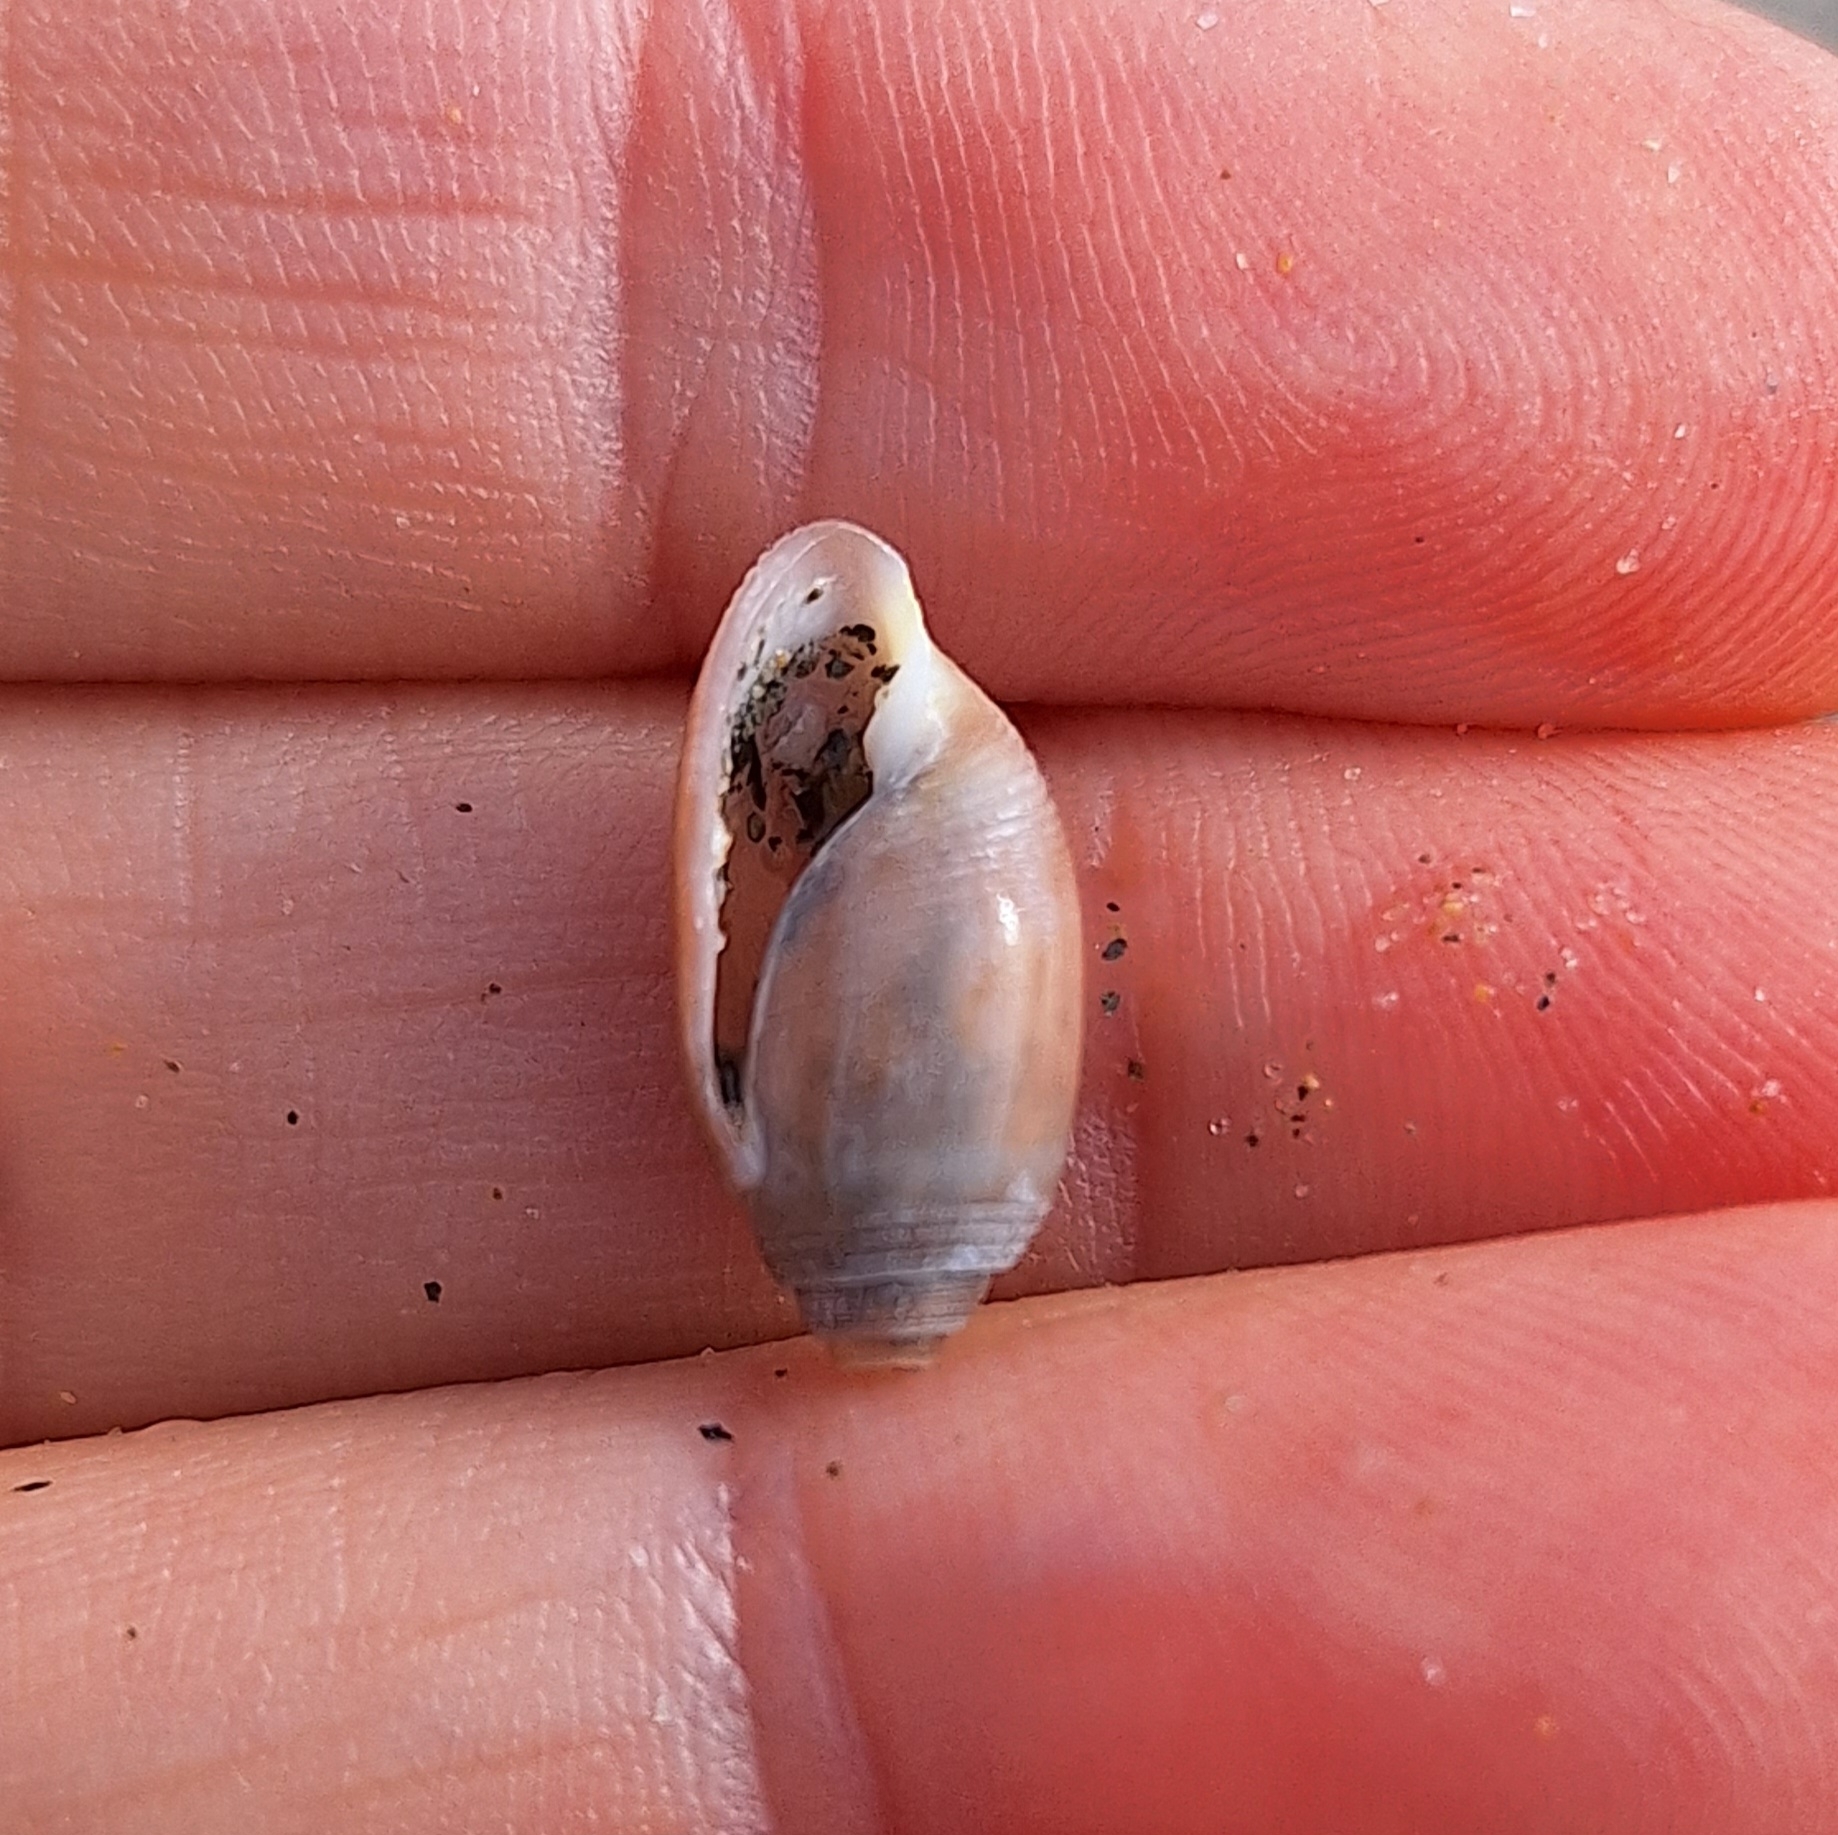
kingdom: Animalia
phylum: Mollusca
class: Gastropoda
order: Cephalaspidea
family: Acteonidae
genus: Acteon
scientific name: Acteon tornatilis
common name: European acteon
